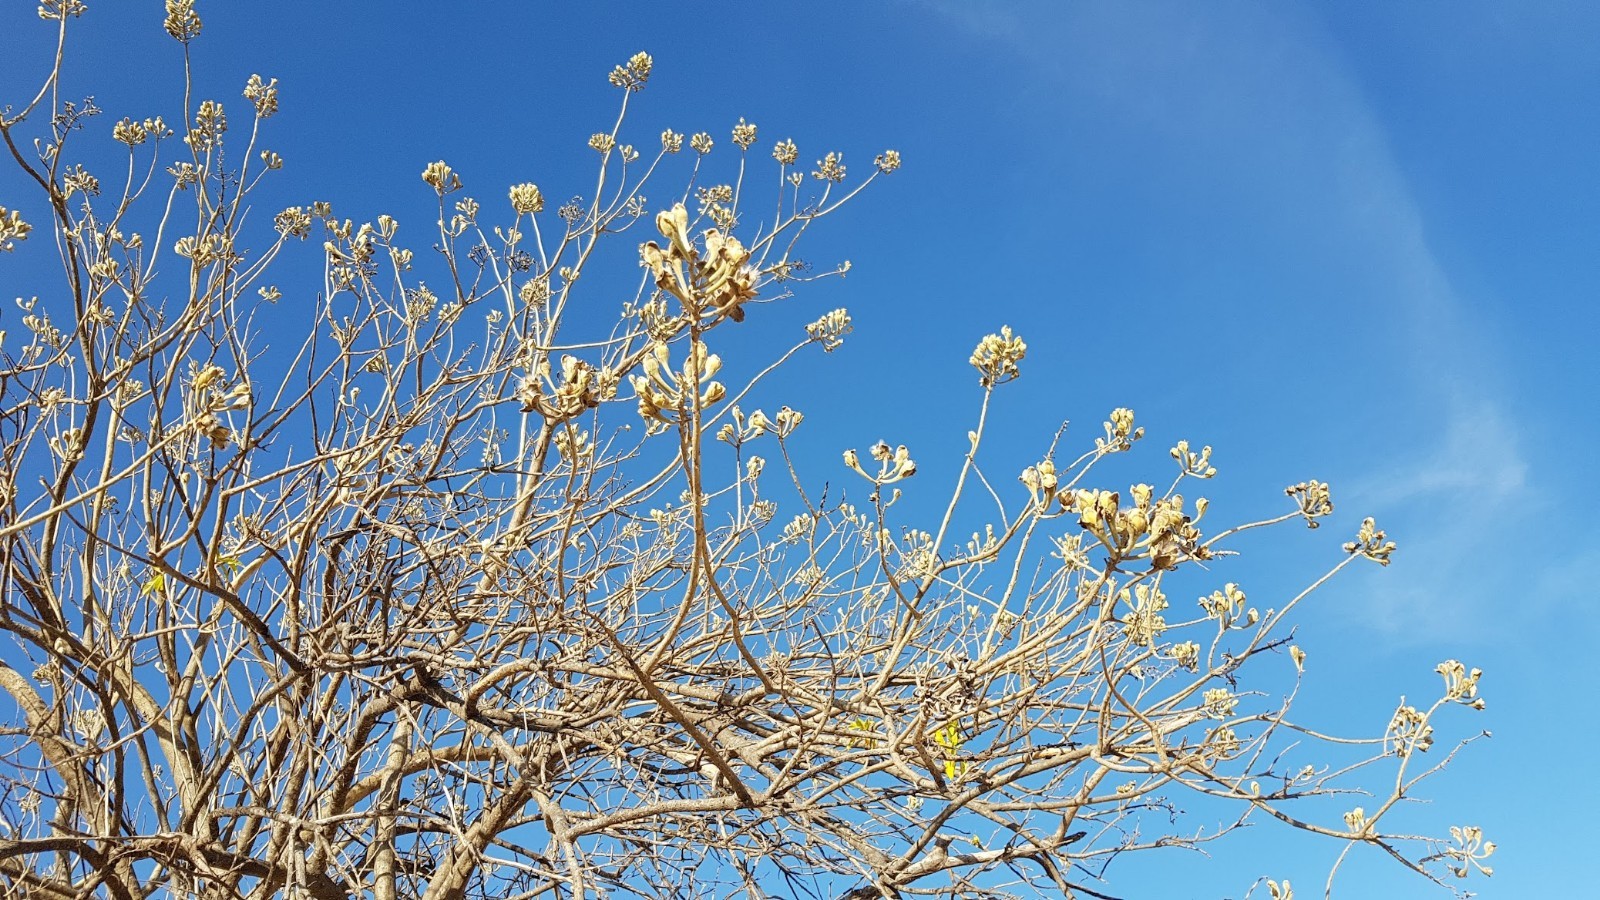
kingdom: Plantae
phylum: Tracheophyta
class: Magnoliopsida
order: Solanales
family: Convolvulaceae
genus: Ipomoea
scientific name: Ipomoea murucoides
